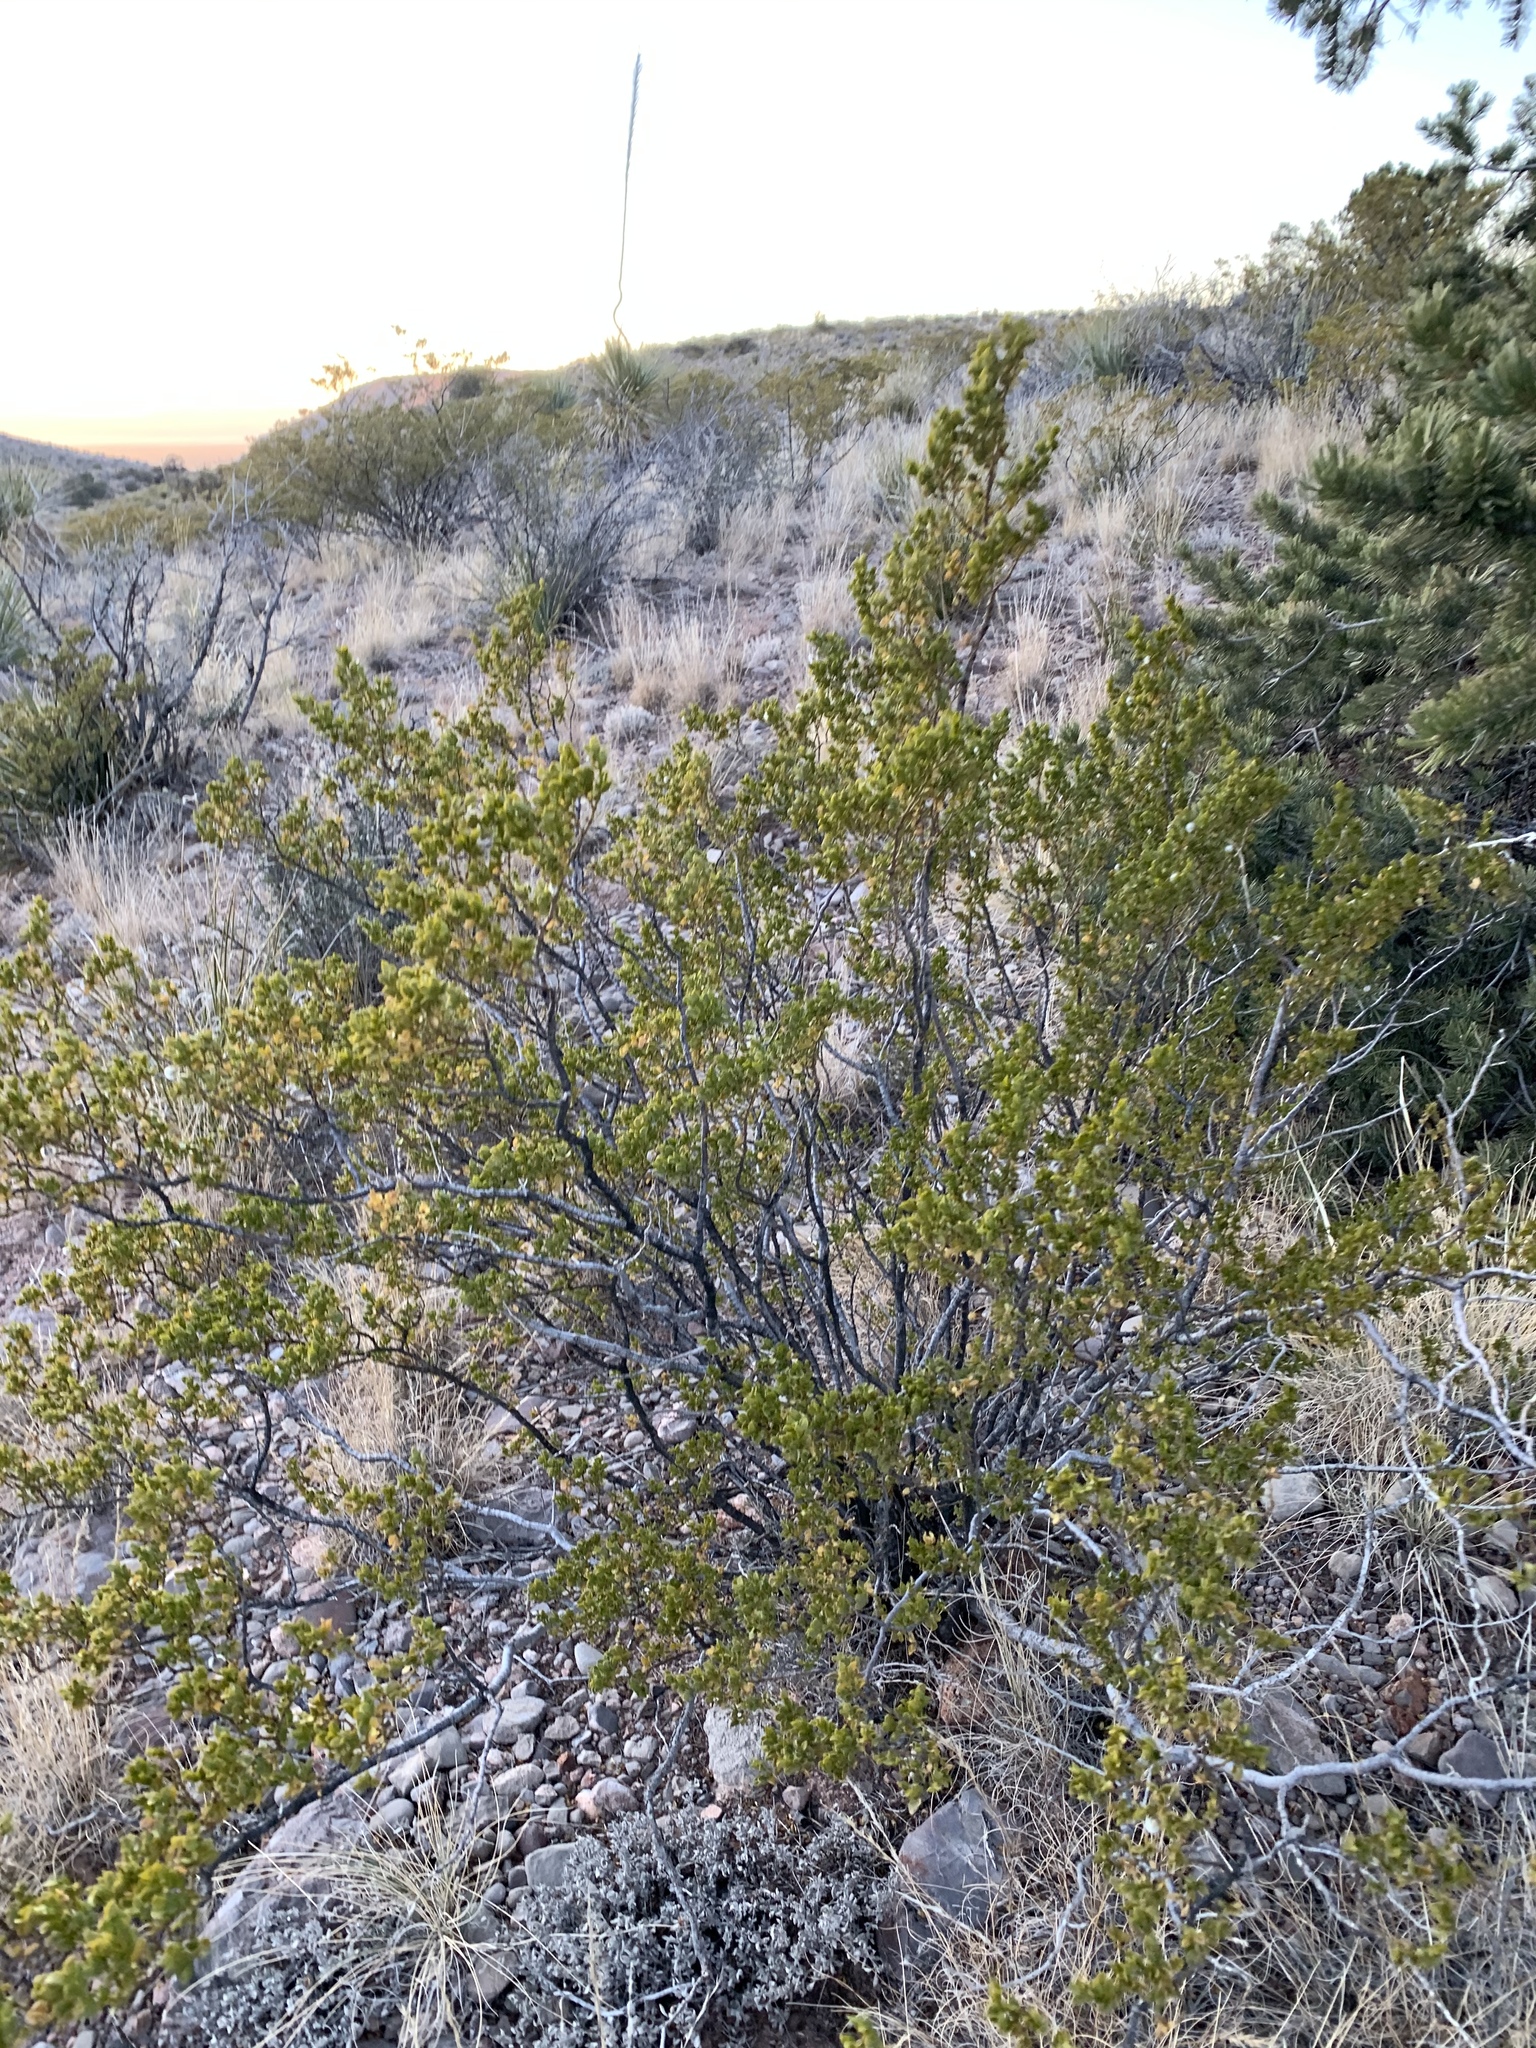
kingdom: Plantae
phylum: Tracheophyta
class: Magnoliopsida
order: Zygophyllales
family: Zygophyllaceae
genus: Larrea
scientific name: Larrea tridentata
